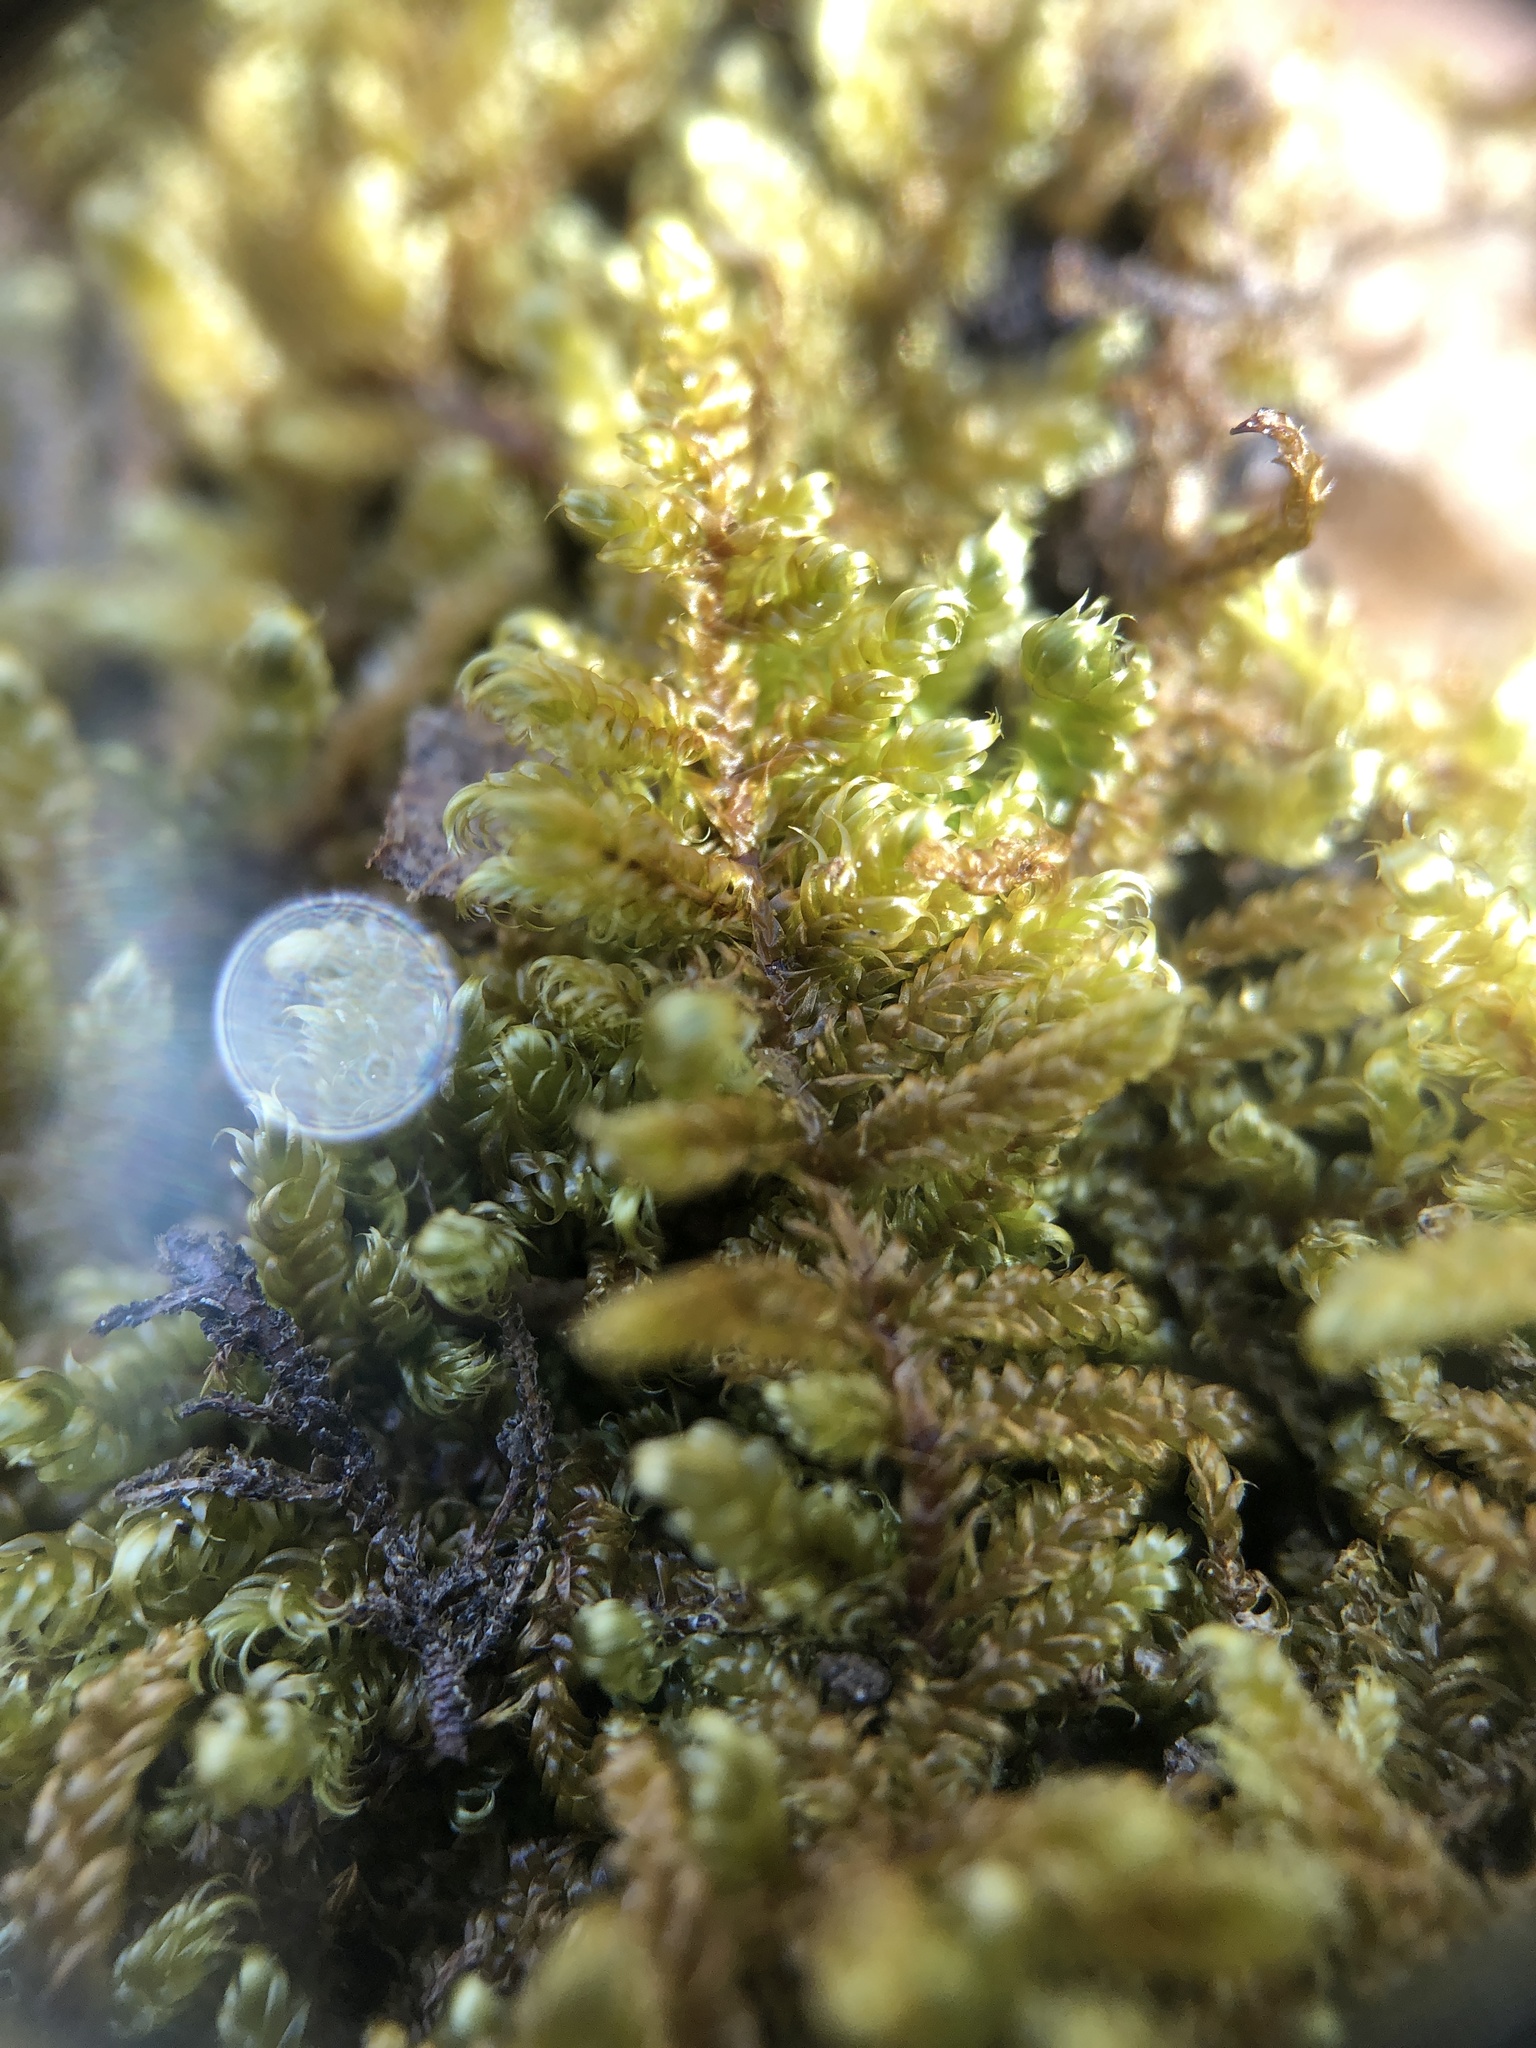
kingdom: Plantae
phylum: Bryophyta
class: Bryopsida
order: Hypnales
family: Callicladiaceae
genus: Callicladium
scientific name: Callicladium imponens
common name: Brocade moss
